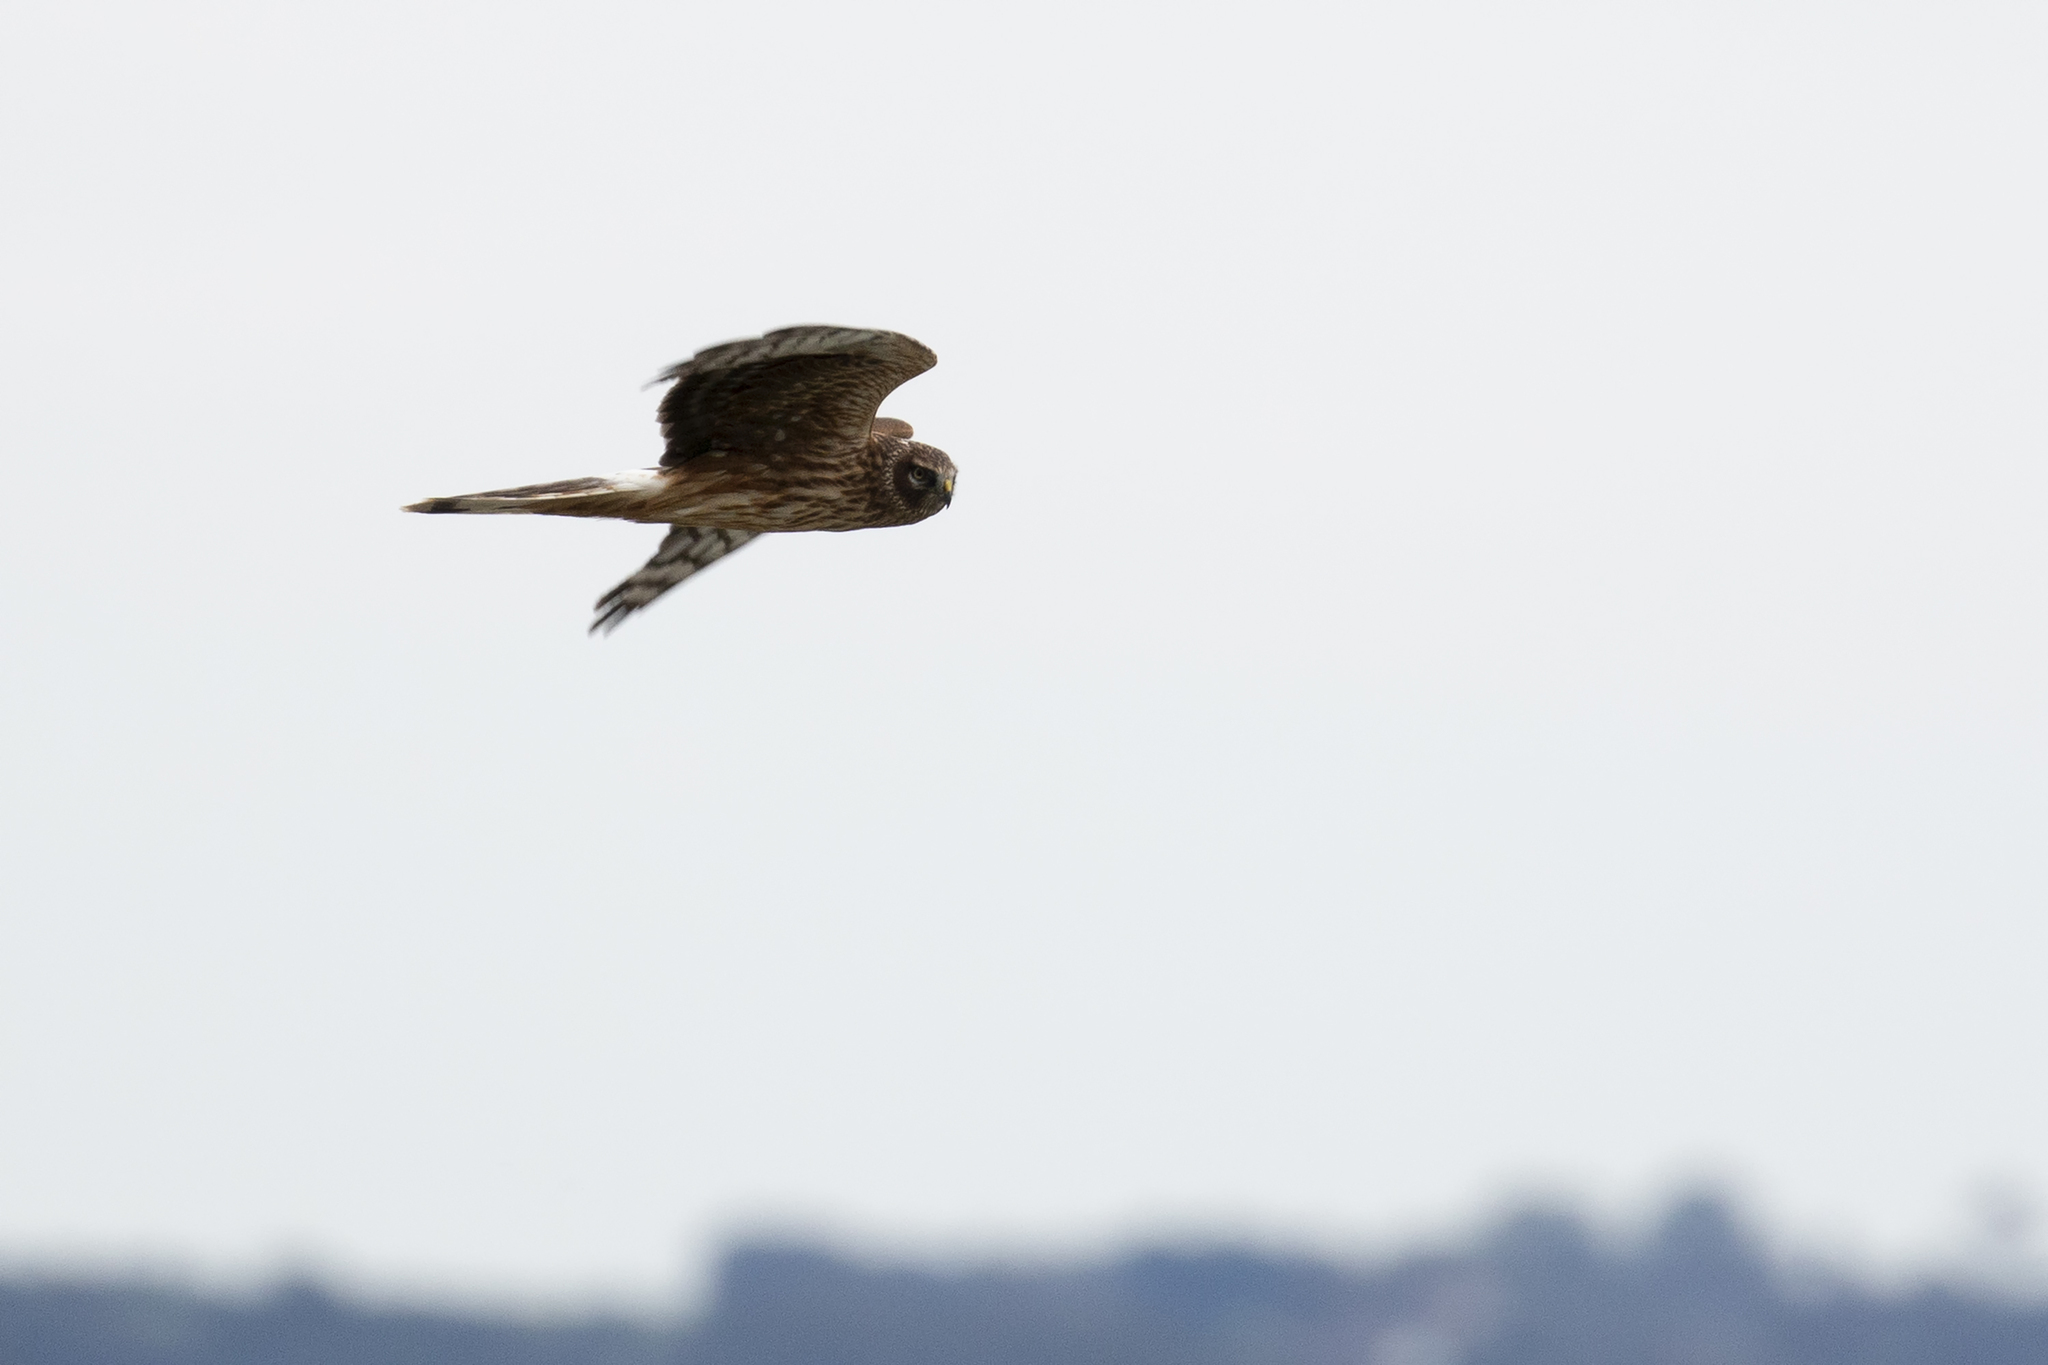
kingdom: Animalia
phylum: Chordata
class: Aves
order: Accipitriformes
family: Accipitridae
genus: Circus
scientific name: Circus cyaneus
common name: Hen harrier
